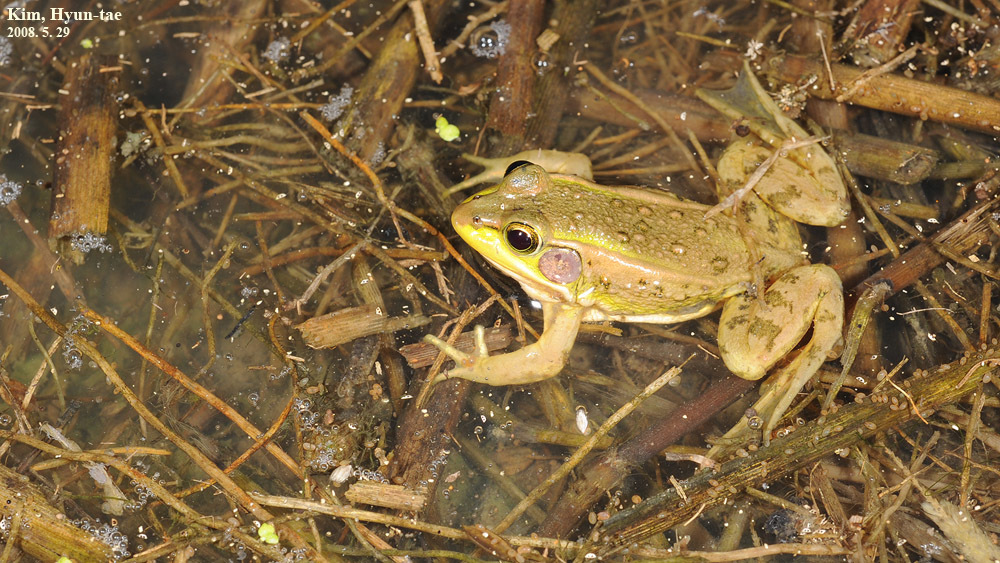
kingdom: Animalia
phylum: Chordata
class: Amphibia
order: Anura
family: Ranidae
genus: Pelophylax
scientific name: Pelophylax chosenicus
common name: Gold-spotted pond frog
